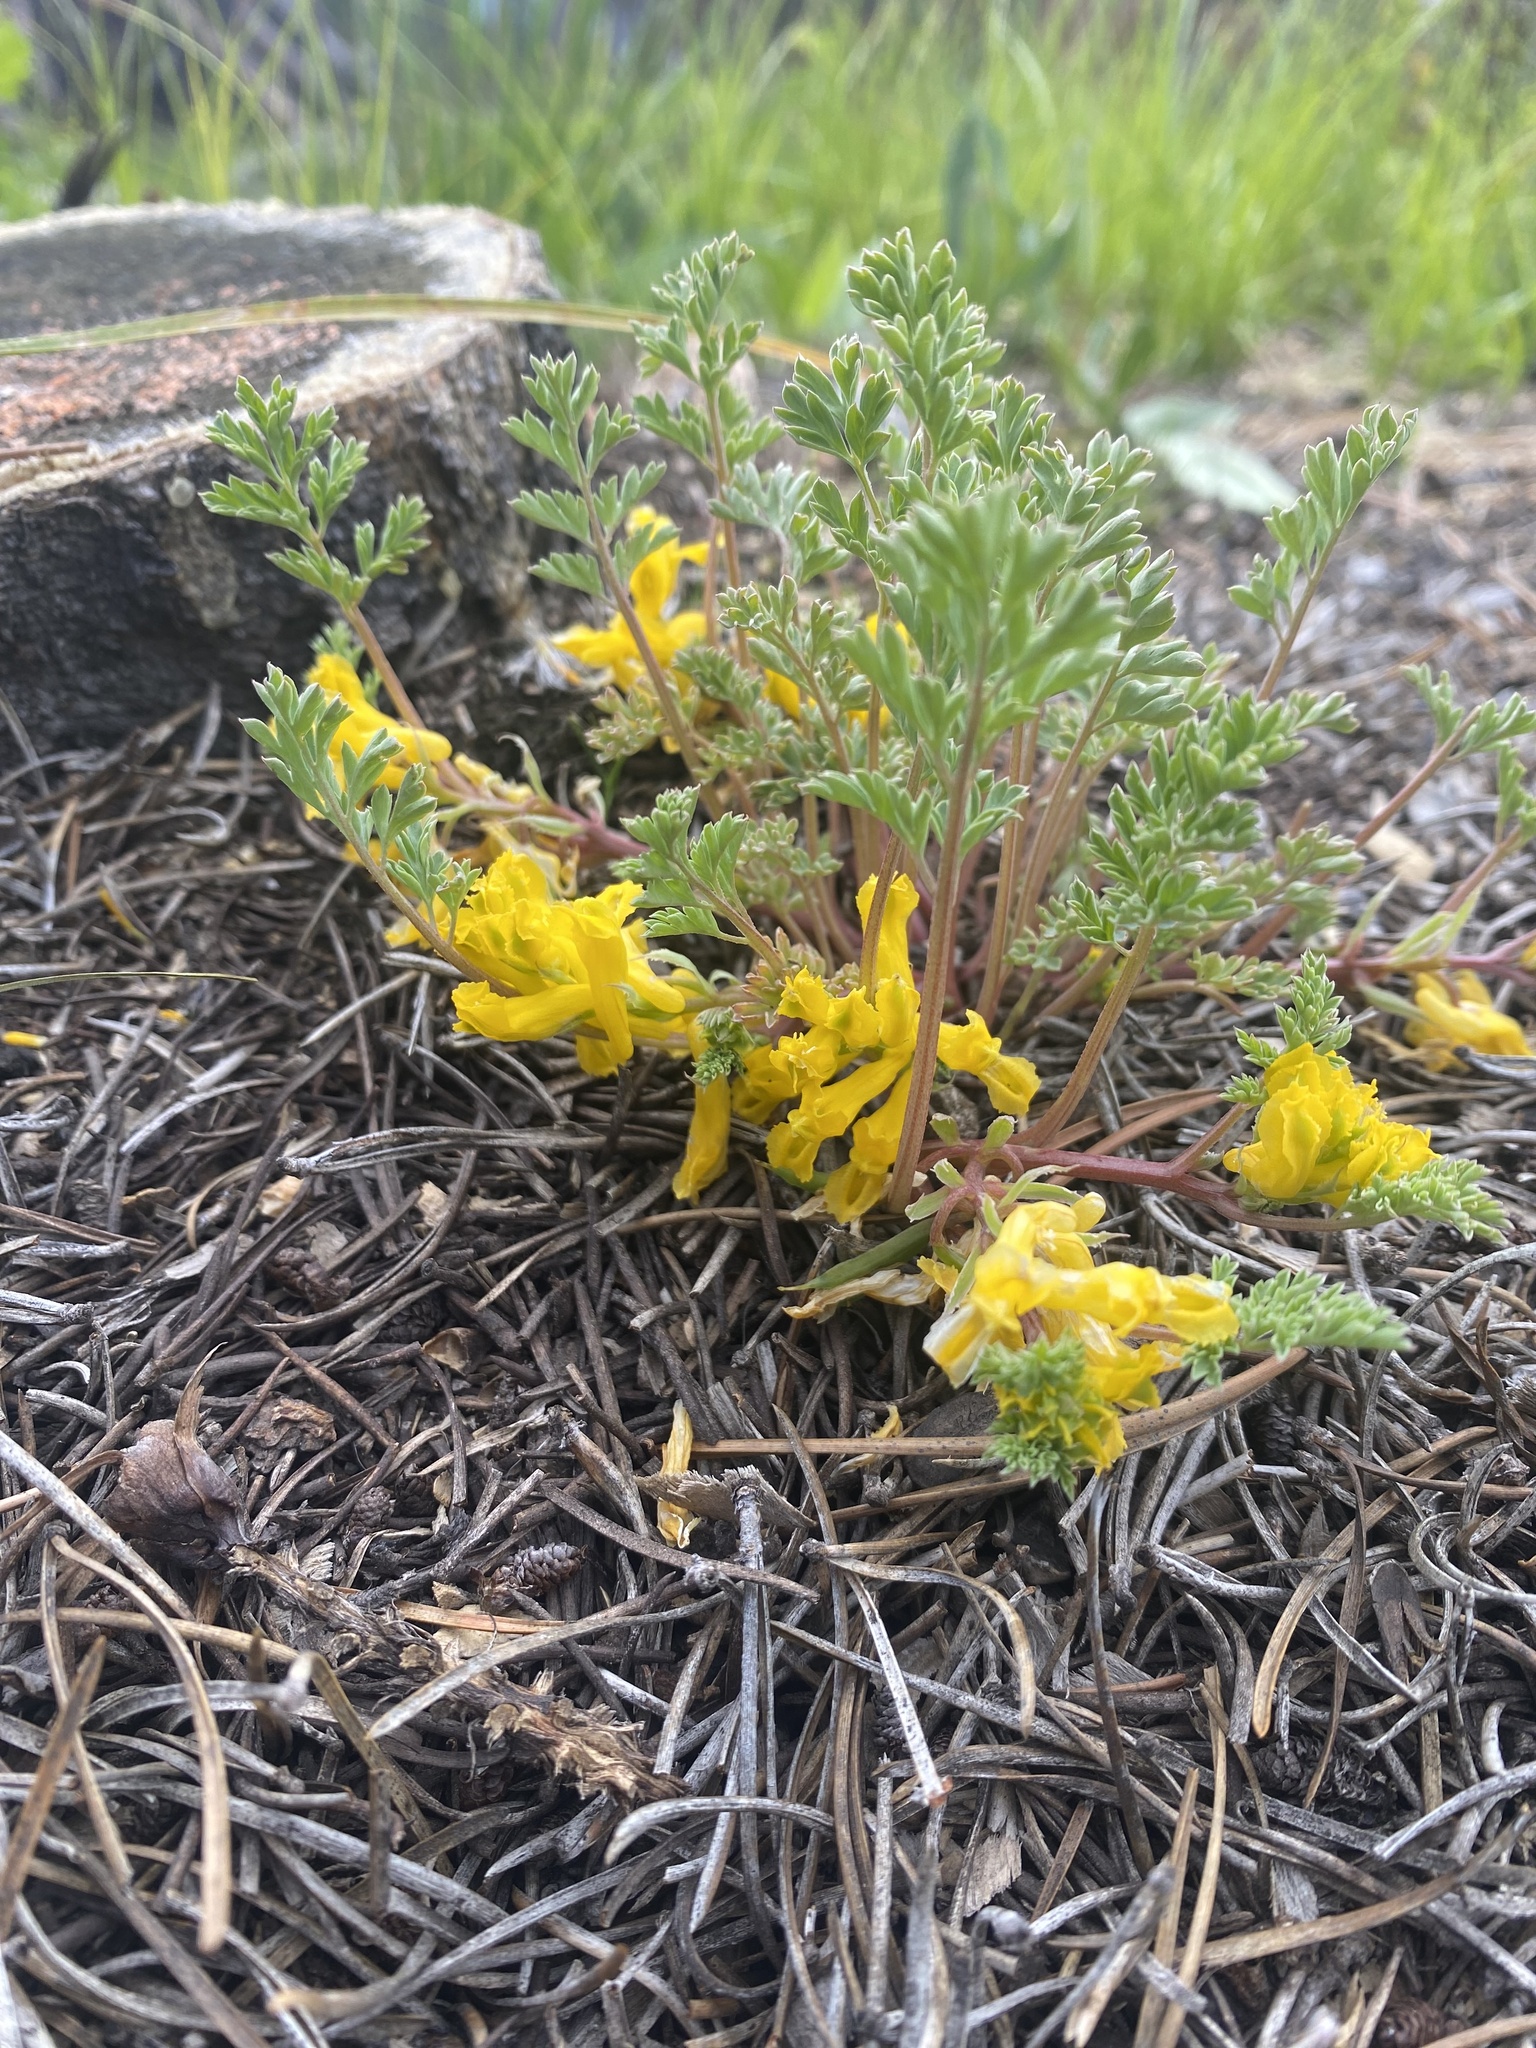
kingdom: Plantae
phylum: Tracheophyta
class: Magnoliopsida
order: Ranunculales
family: Papaveraceae
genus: Corydalis
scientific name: Corydalis aurea
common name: Golden corydalis
